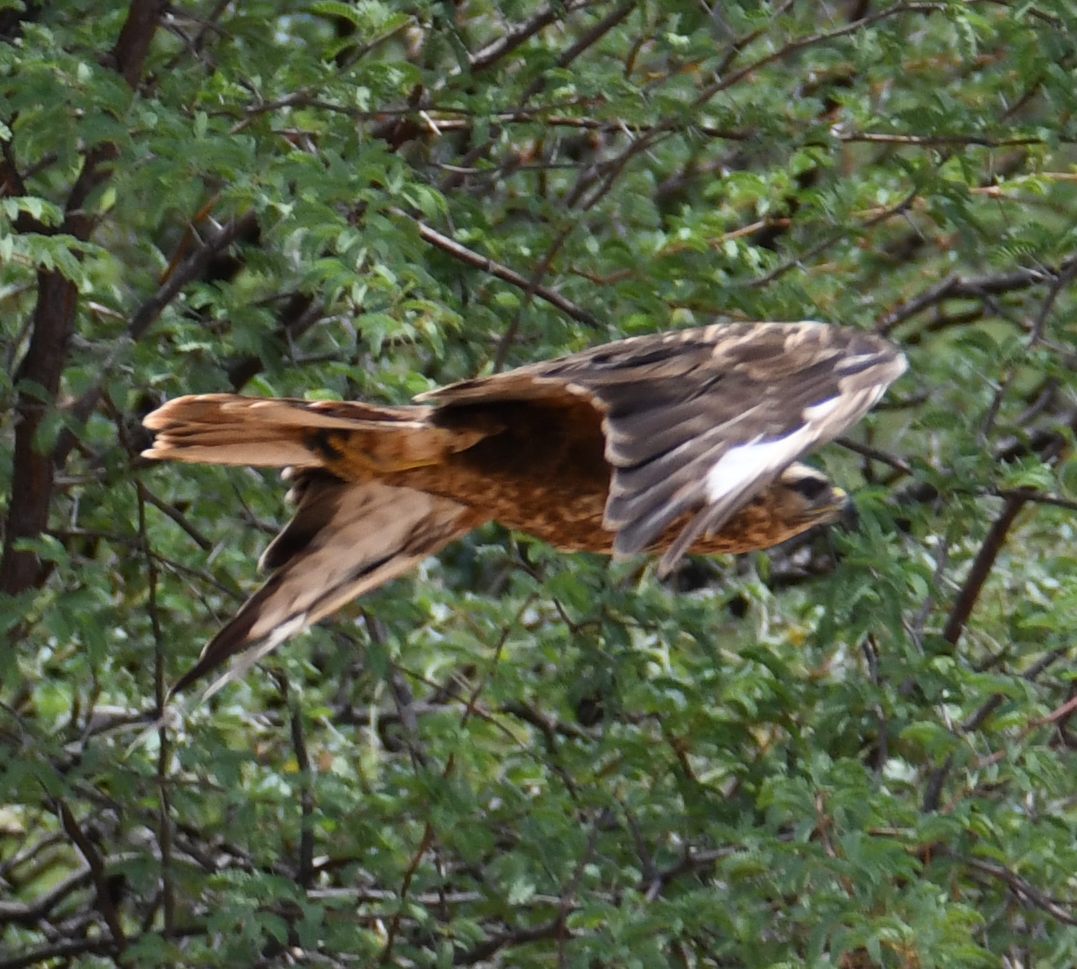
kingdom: Animalia
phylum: Chordata
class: Aves
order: Accipitriformes
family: Accipitridae
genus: Buteo
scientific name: Buteo buteo
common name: Common buzzard
